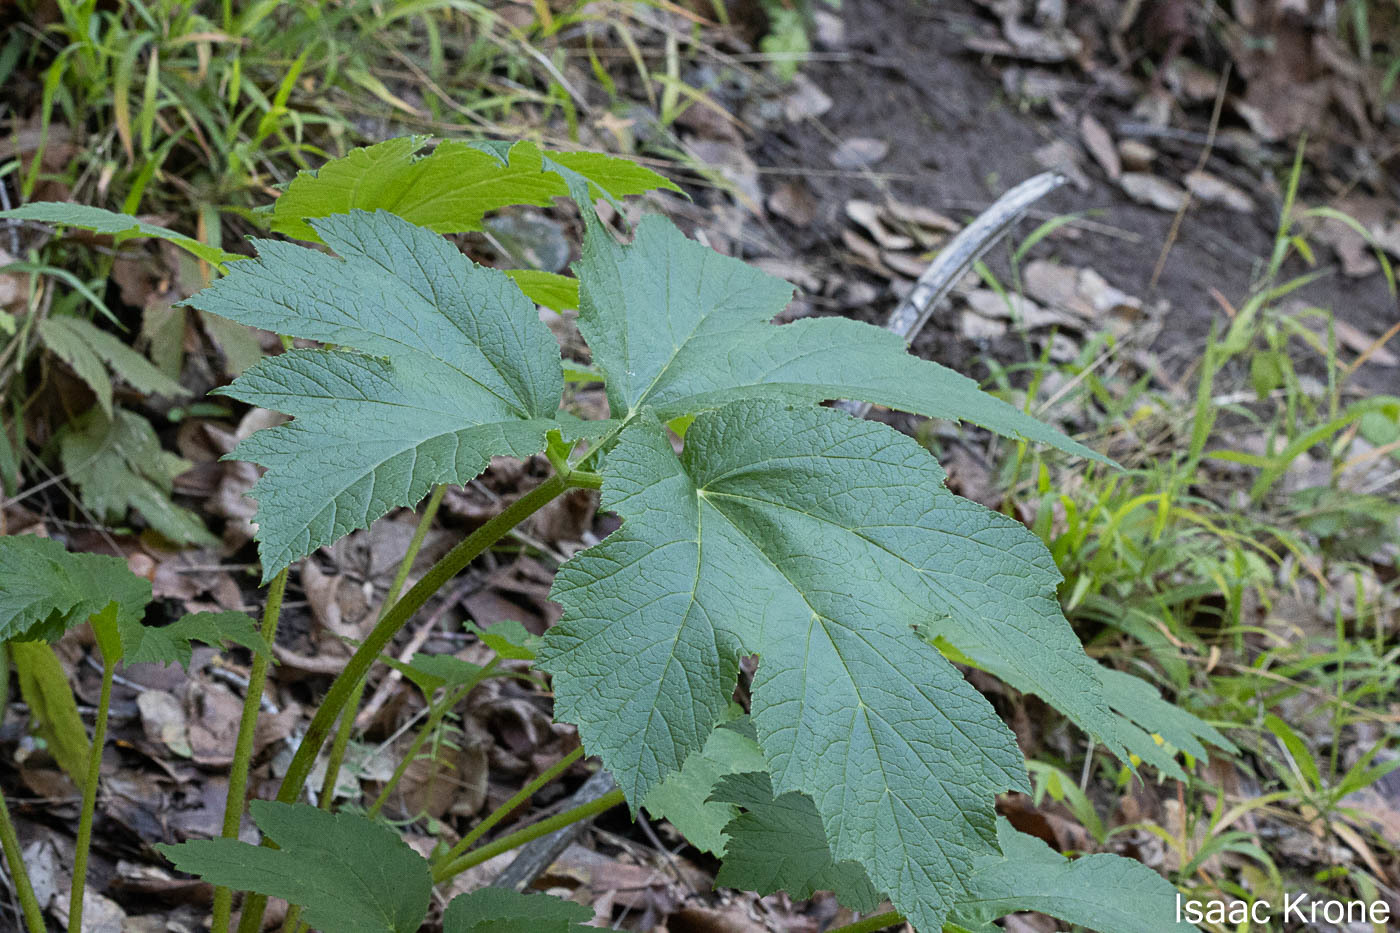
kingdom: Plantae
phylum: Tracheophyta
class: Magnoliopsida
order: Apiales
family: Apiaceae
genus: Heracleum
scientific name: Heracleum maximum
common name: American cow parsnip
